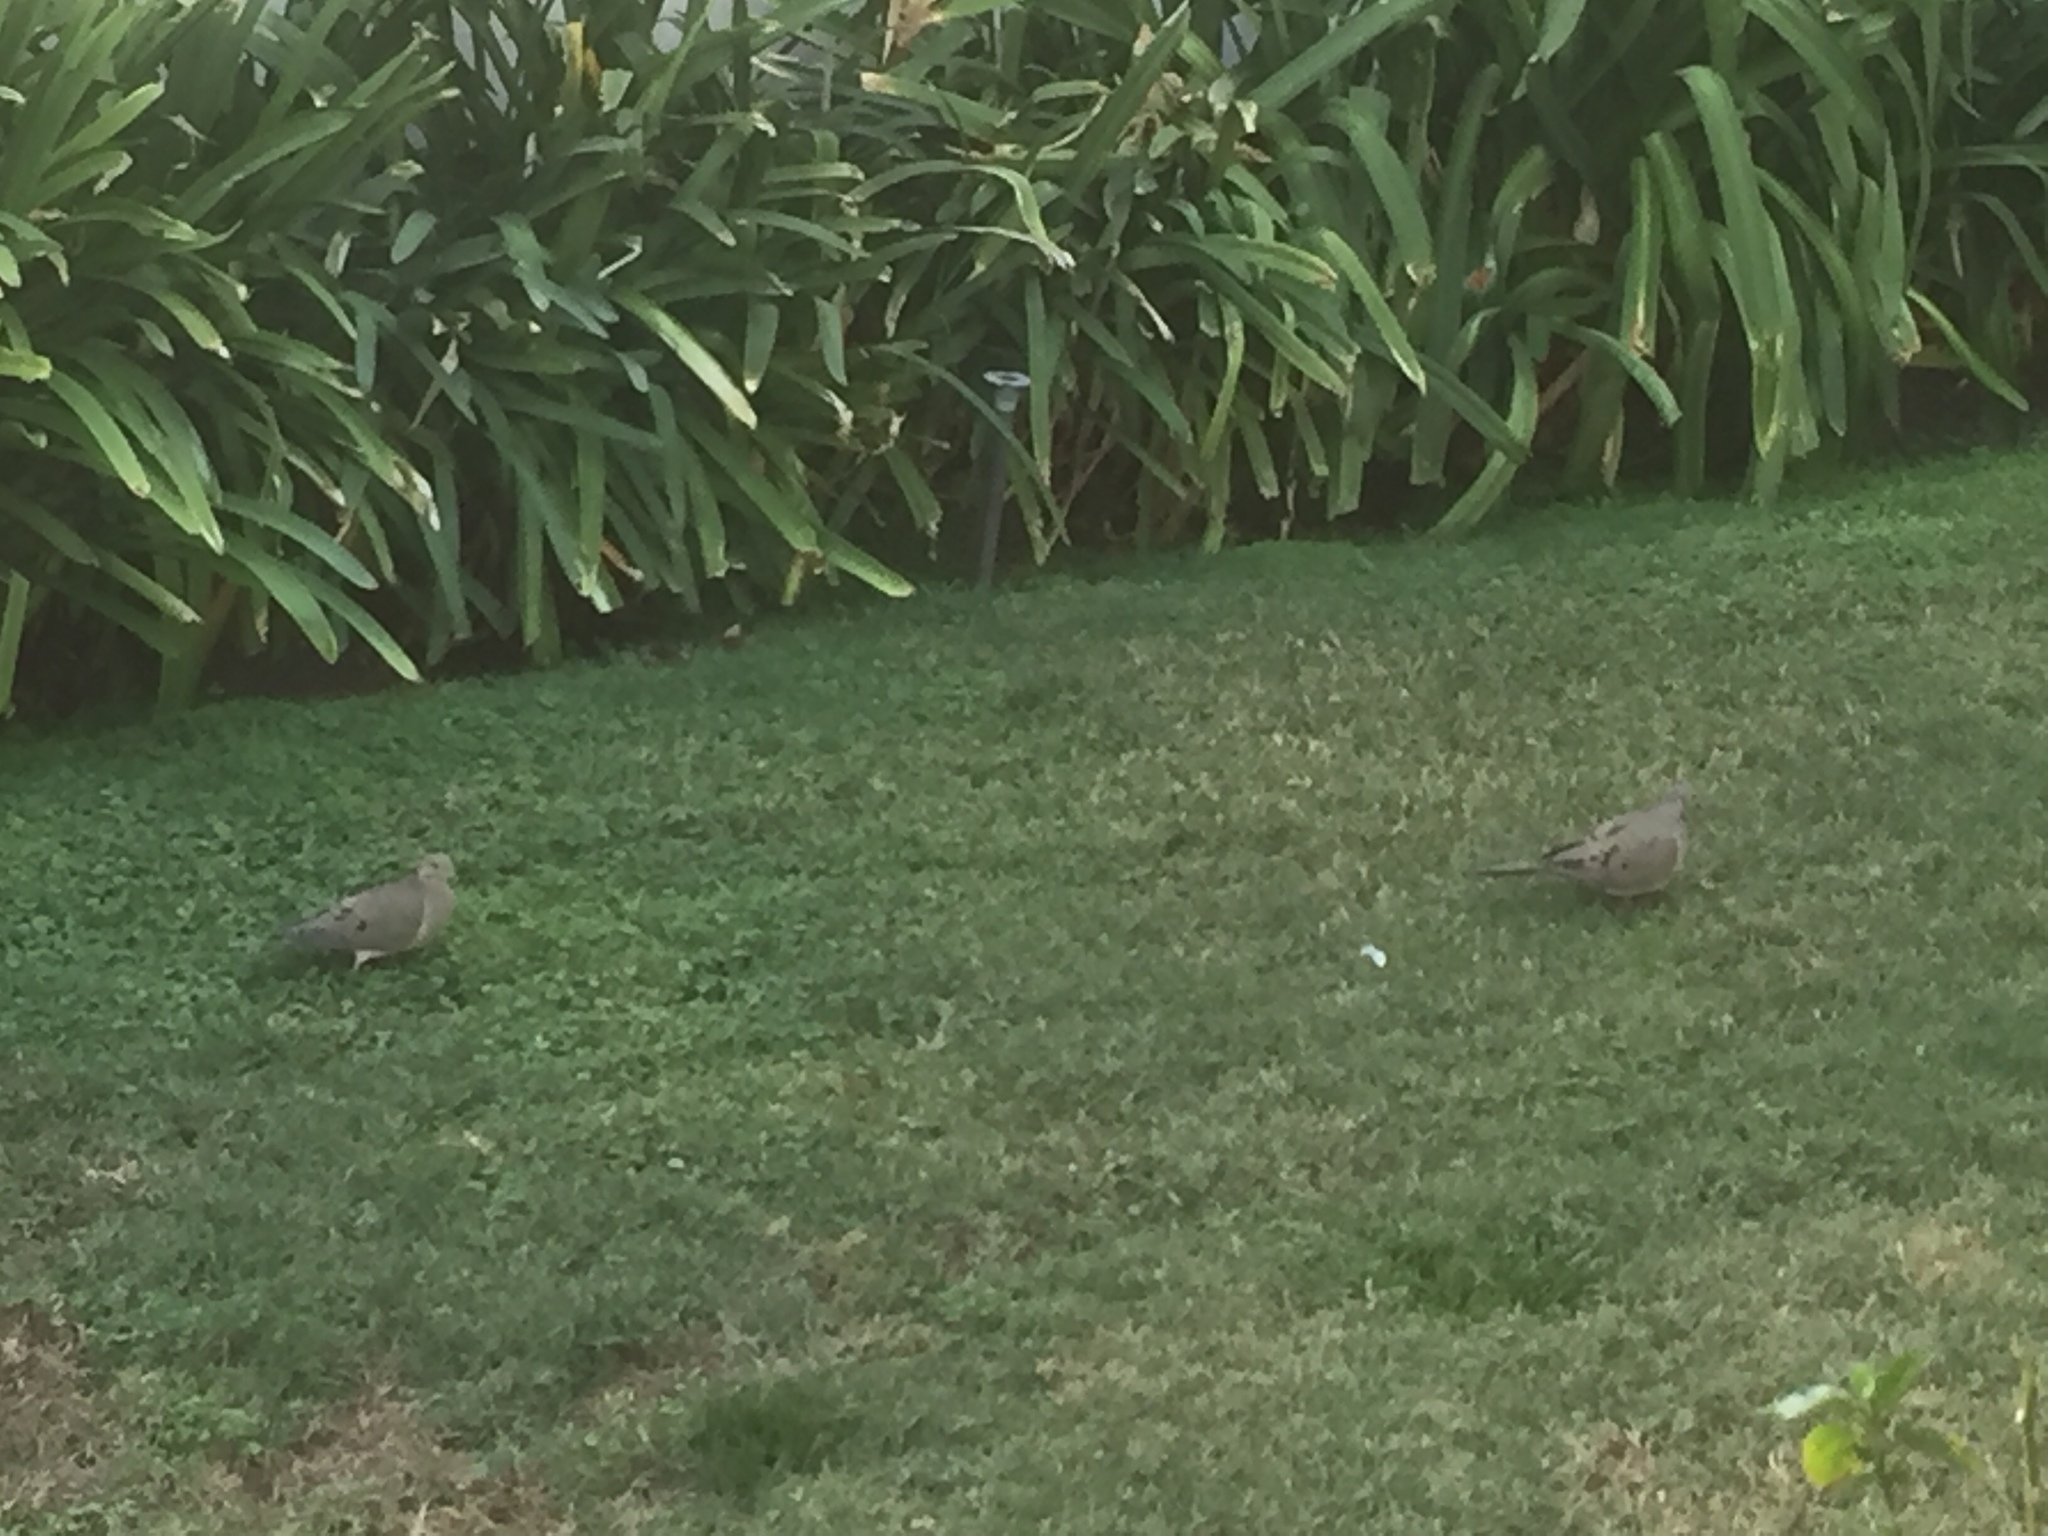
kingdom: Animalia
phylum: Chordata
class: Aves
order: Columbiformes
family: Columbidae
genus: Zenaida
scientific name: Zenaida macroura
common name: Mourning dove
